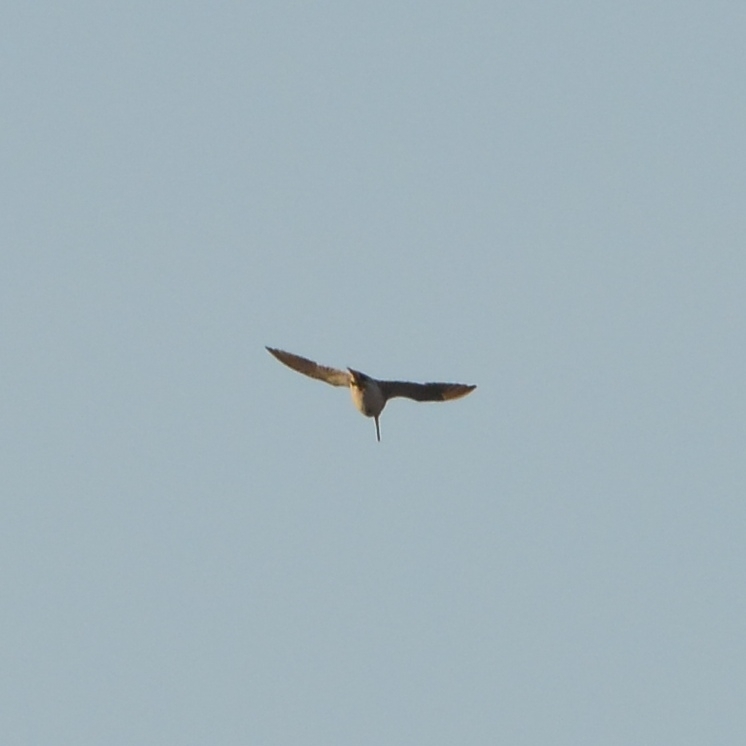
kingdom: Animalia
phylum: Chordata
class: Aves
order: Charadriiformes
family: Scolopacidae
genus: Gallinago
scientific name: Gallinago gallinago
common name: Common snipe
